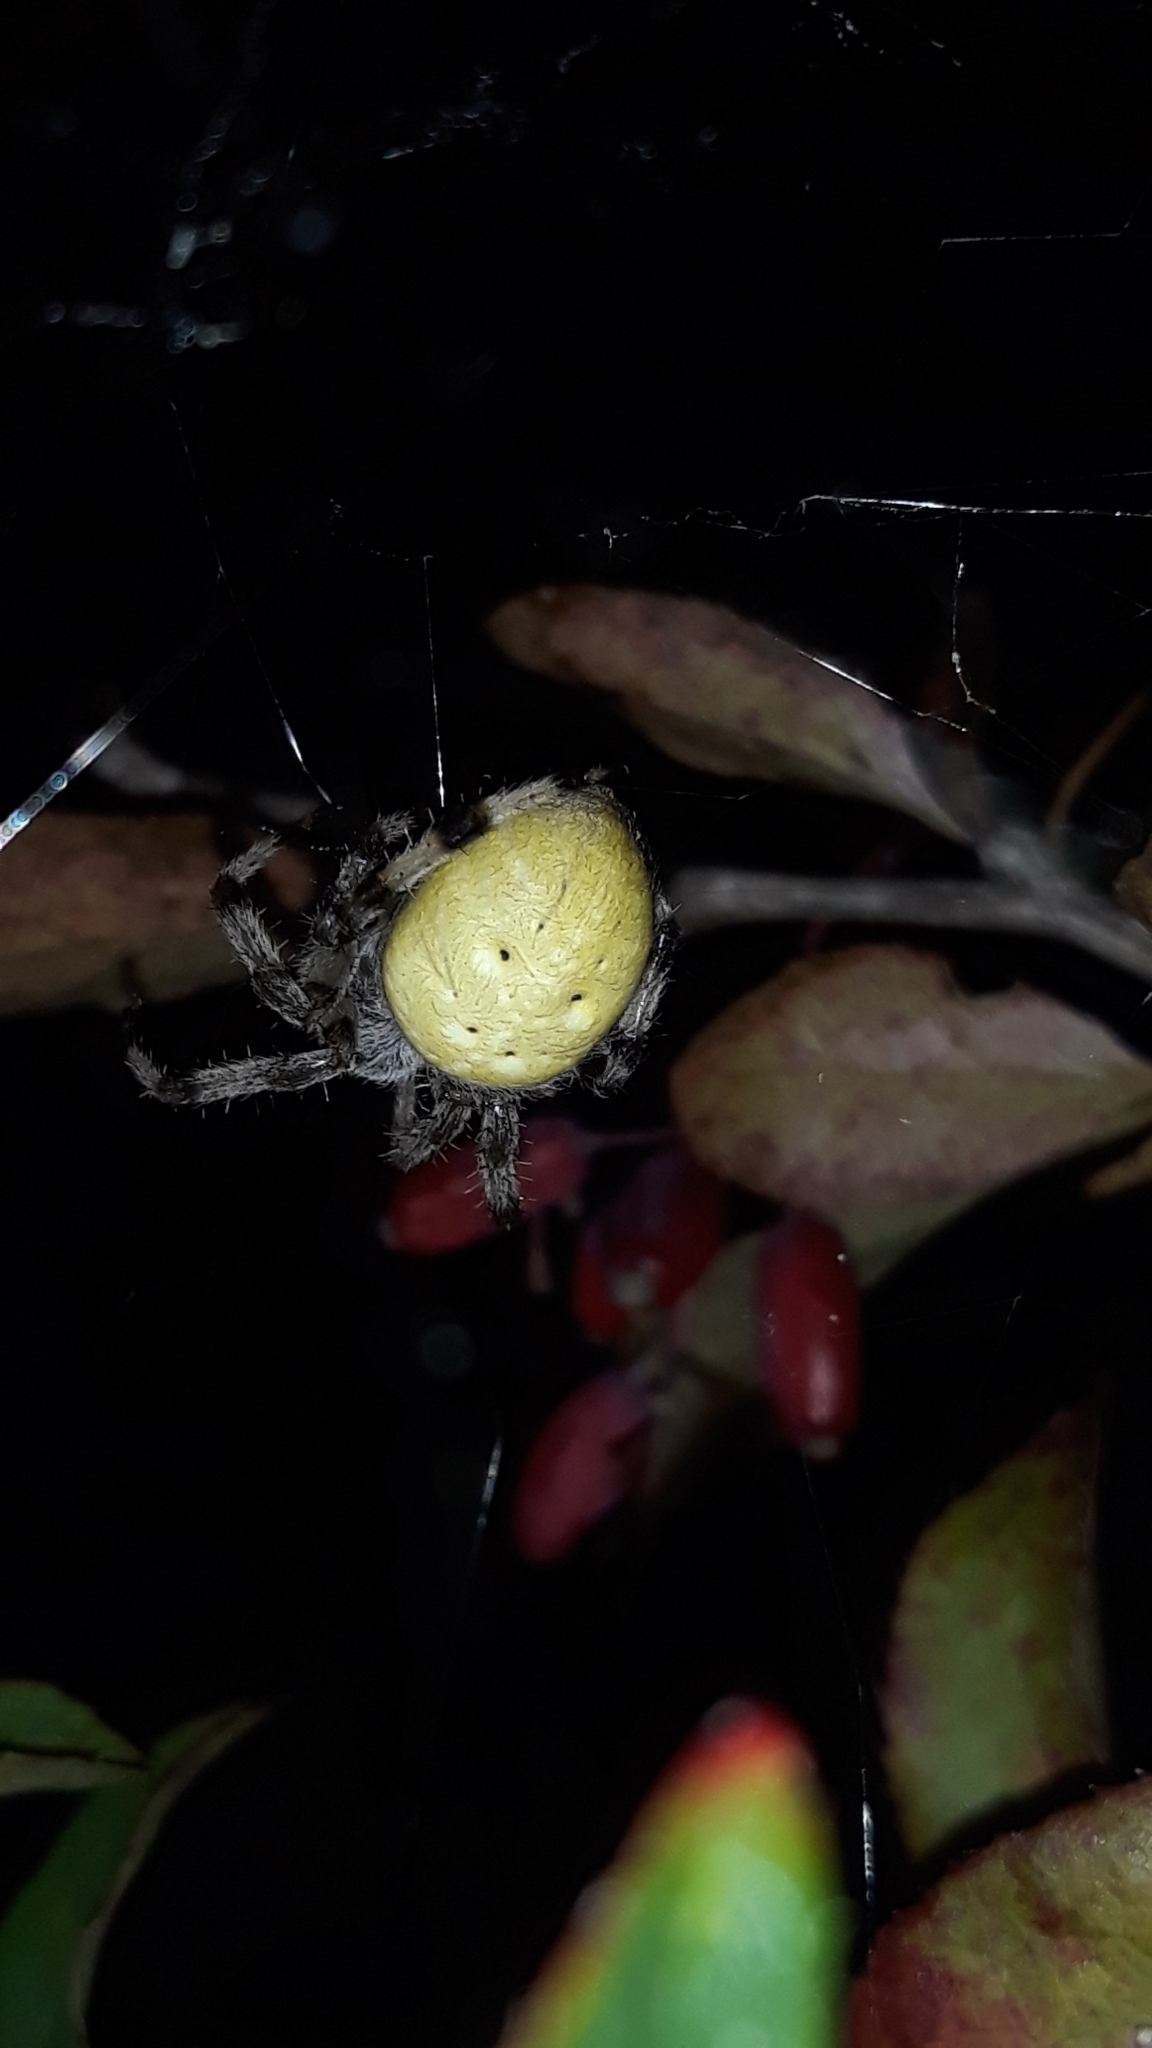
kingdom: Animalia
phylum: Arthropoda
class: Arachnida
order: Araneae
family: Araneidae
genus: Araneus
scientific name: Araneus quadratus
